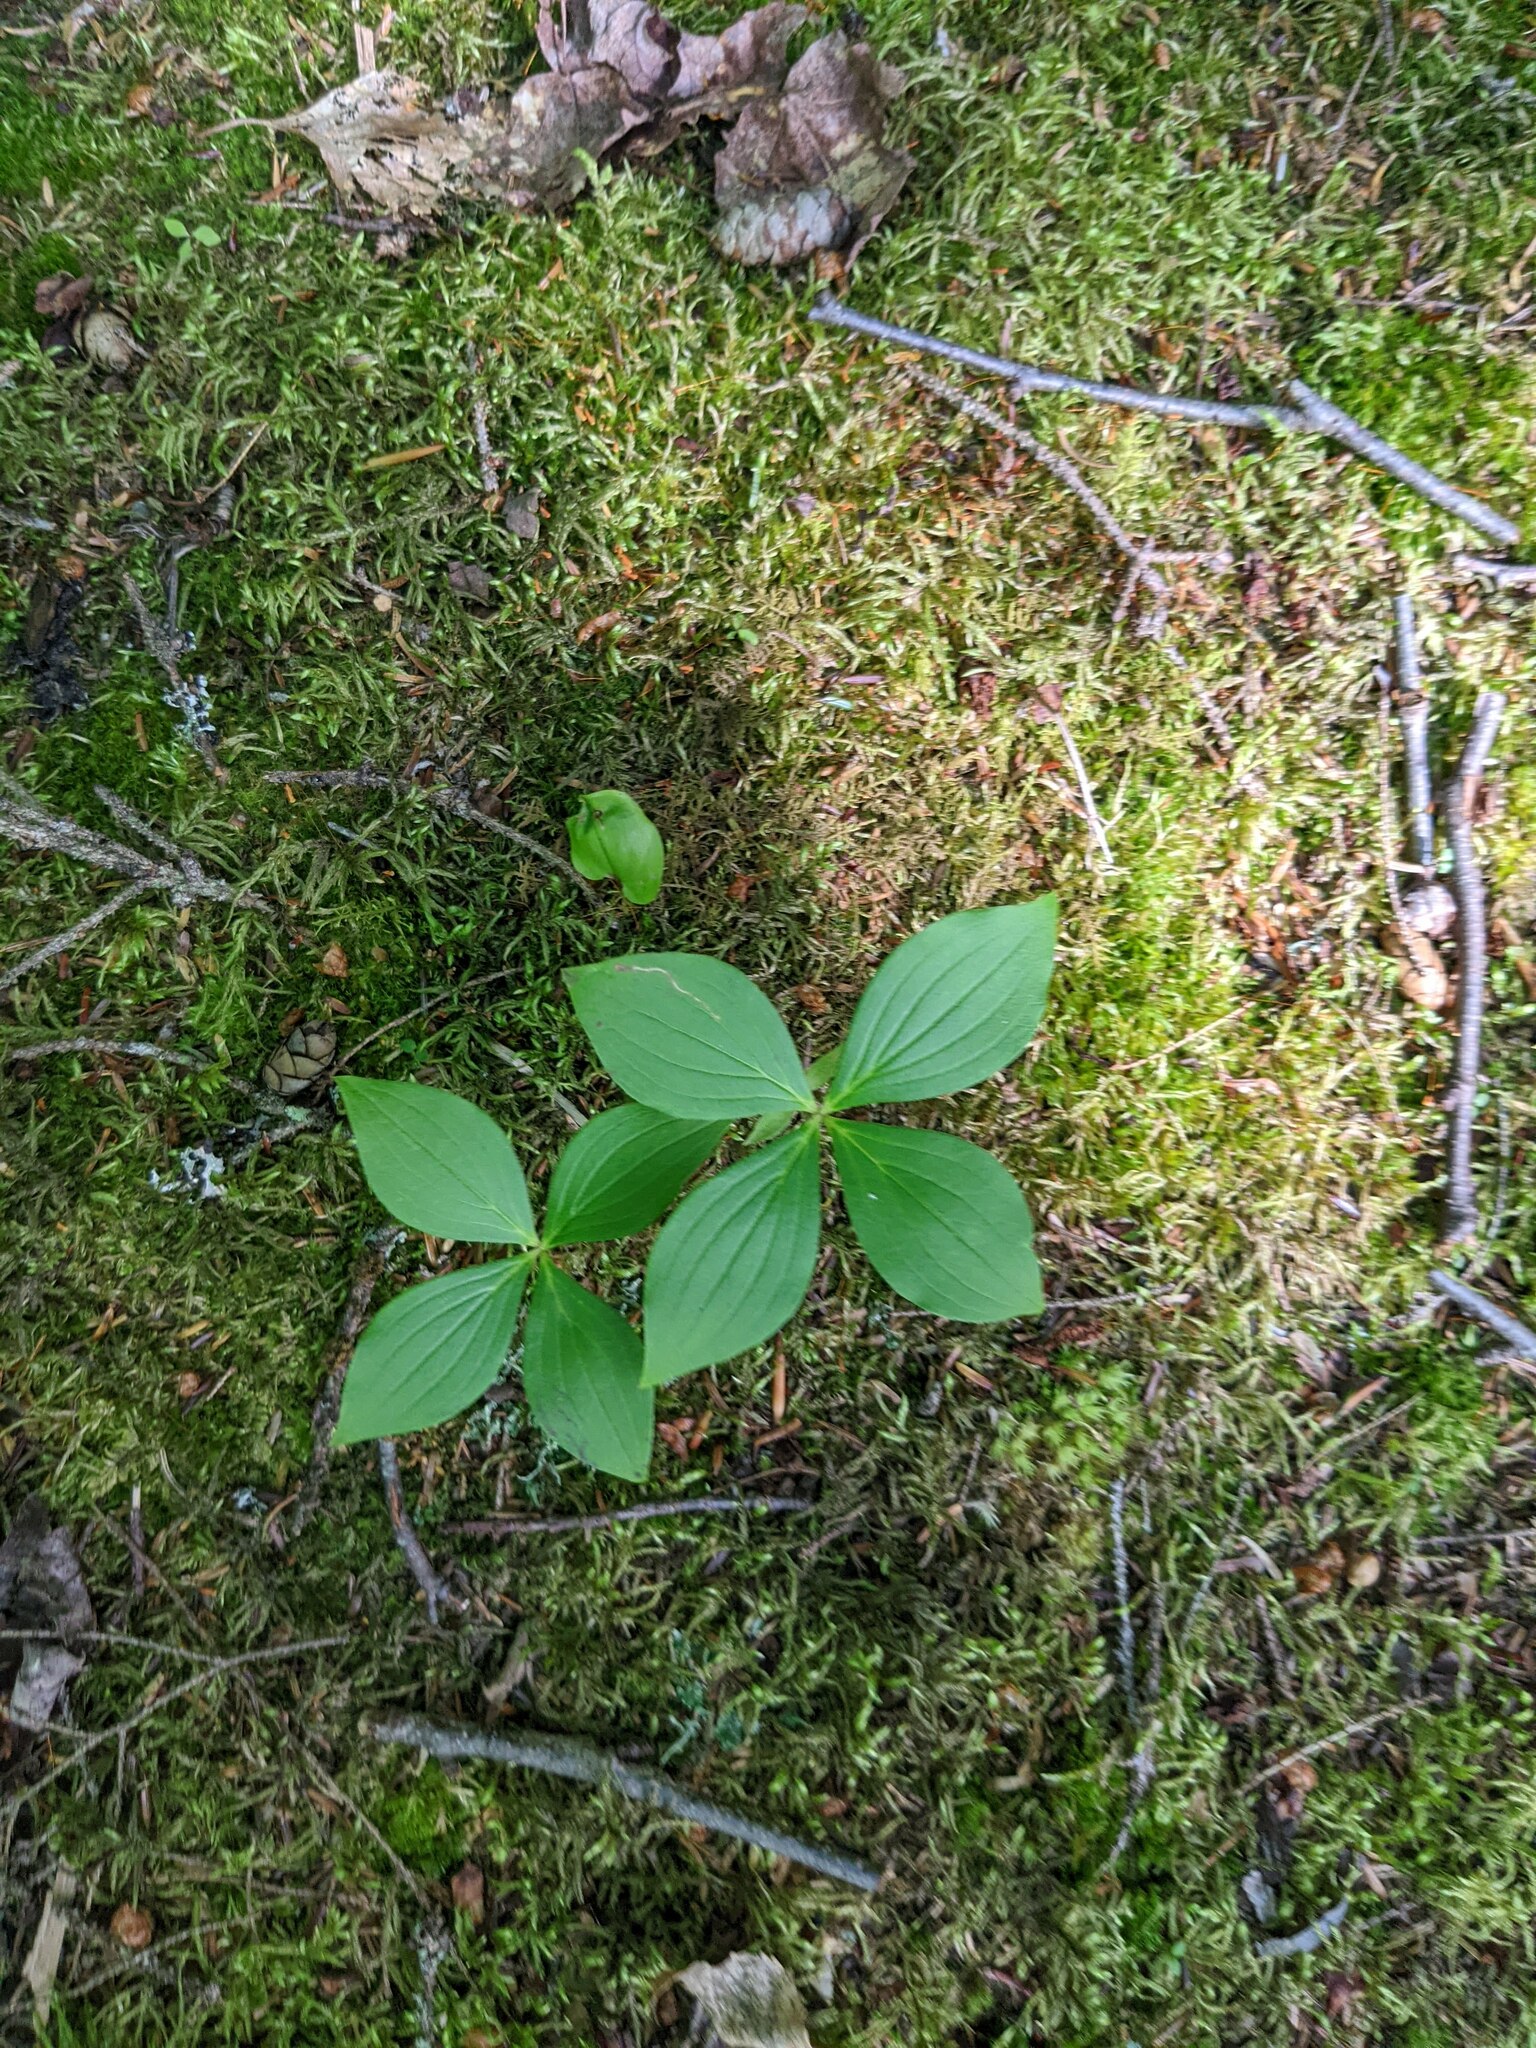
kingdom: Plantae
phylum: Tracheophyta
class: Magnoliopsida
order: Cornales
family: Cornaceae
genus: Cornus
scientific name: Cornus canadensis
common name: Creeping dogwood
